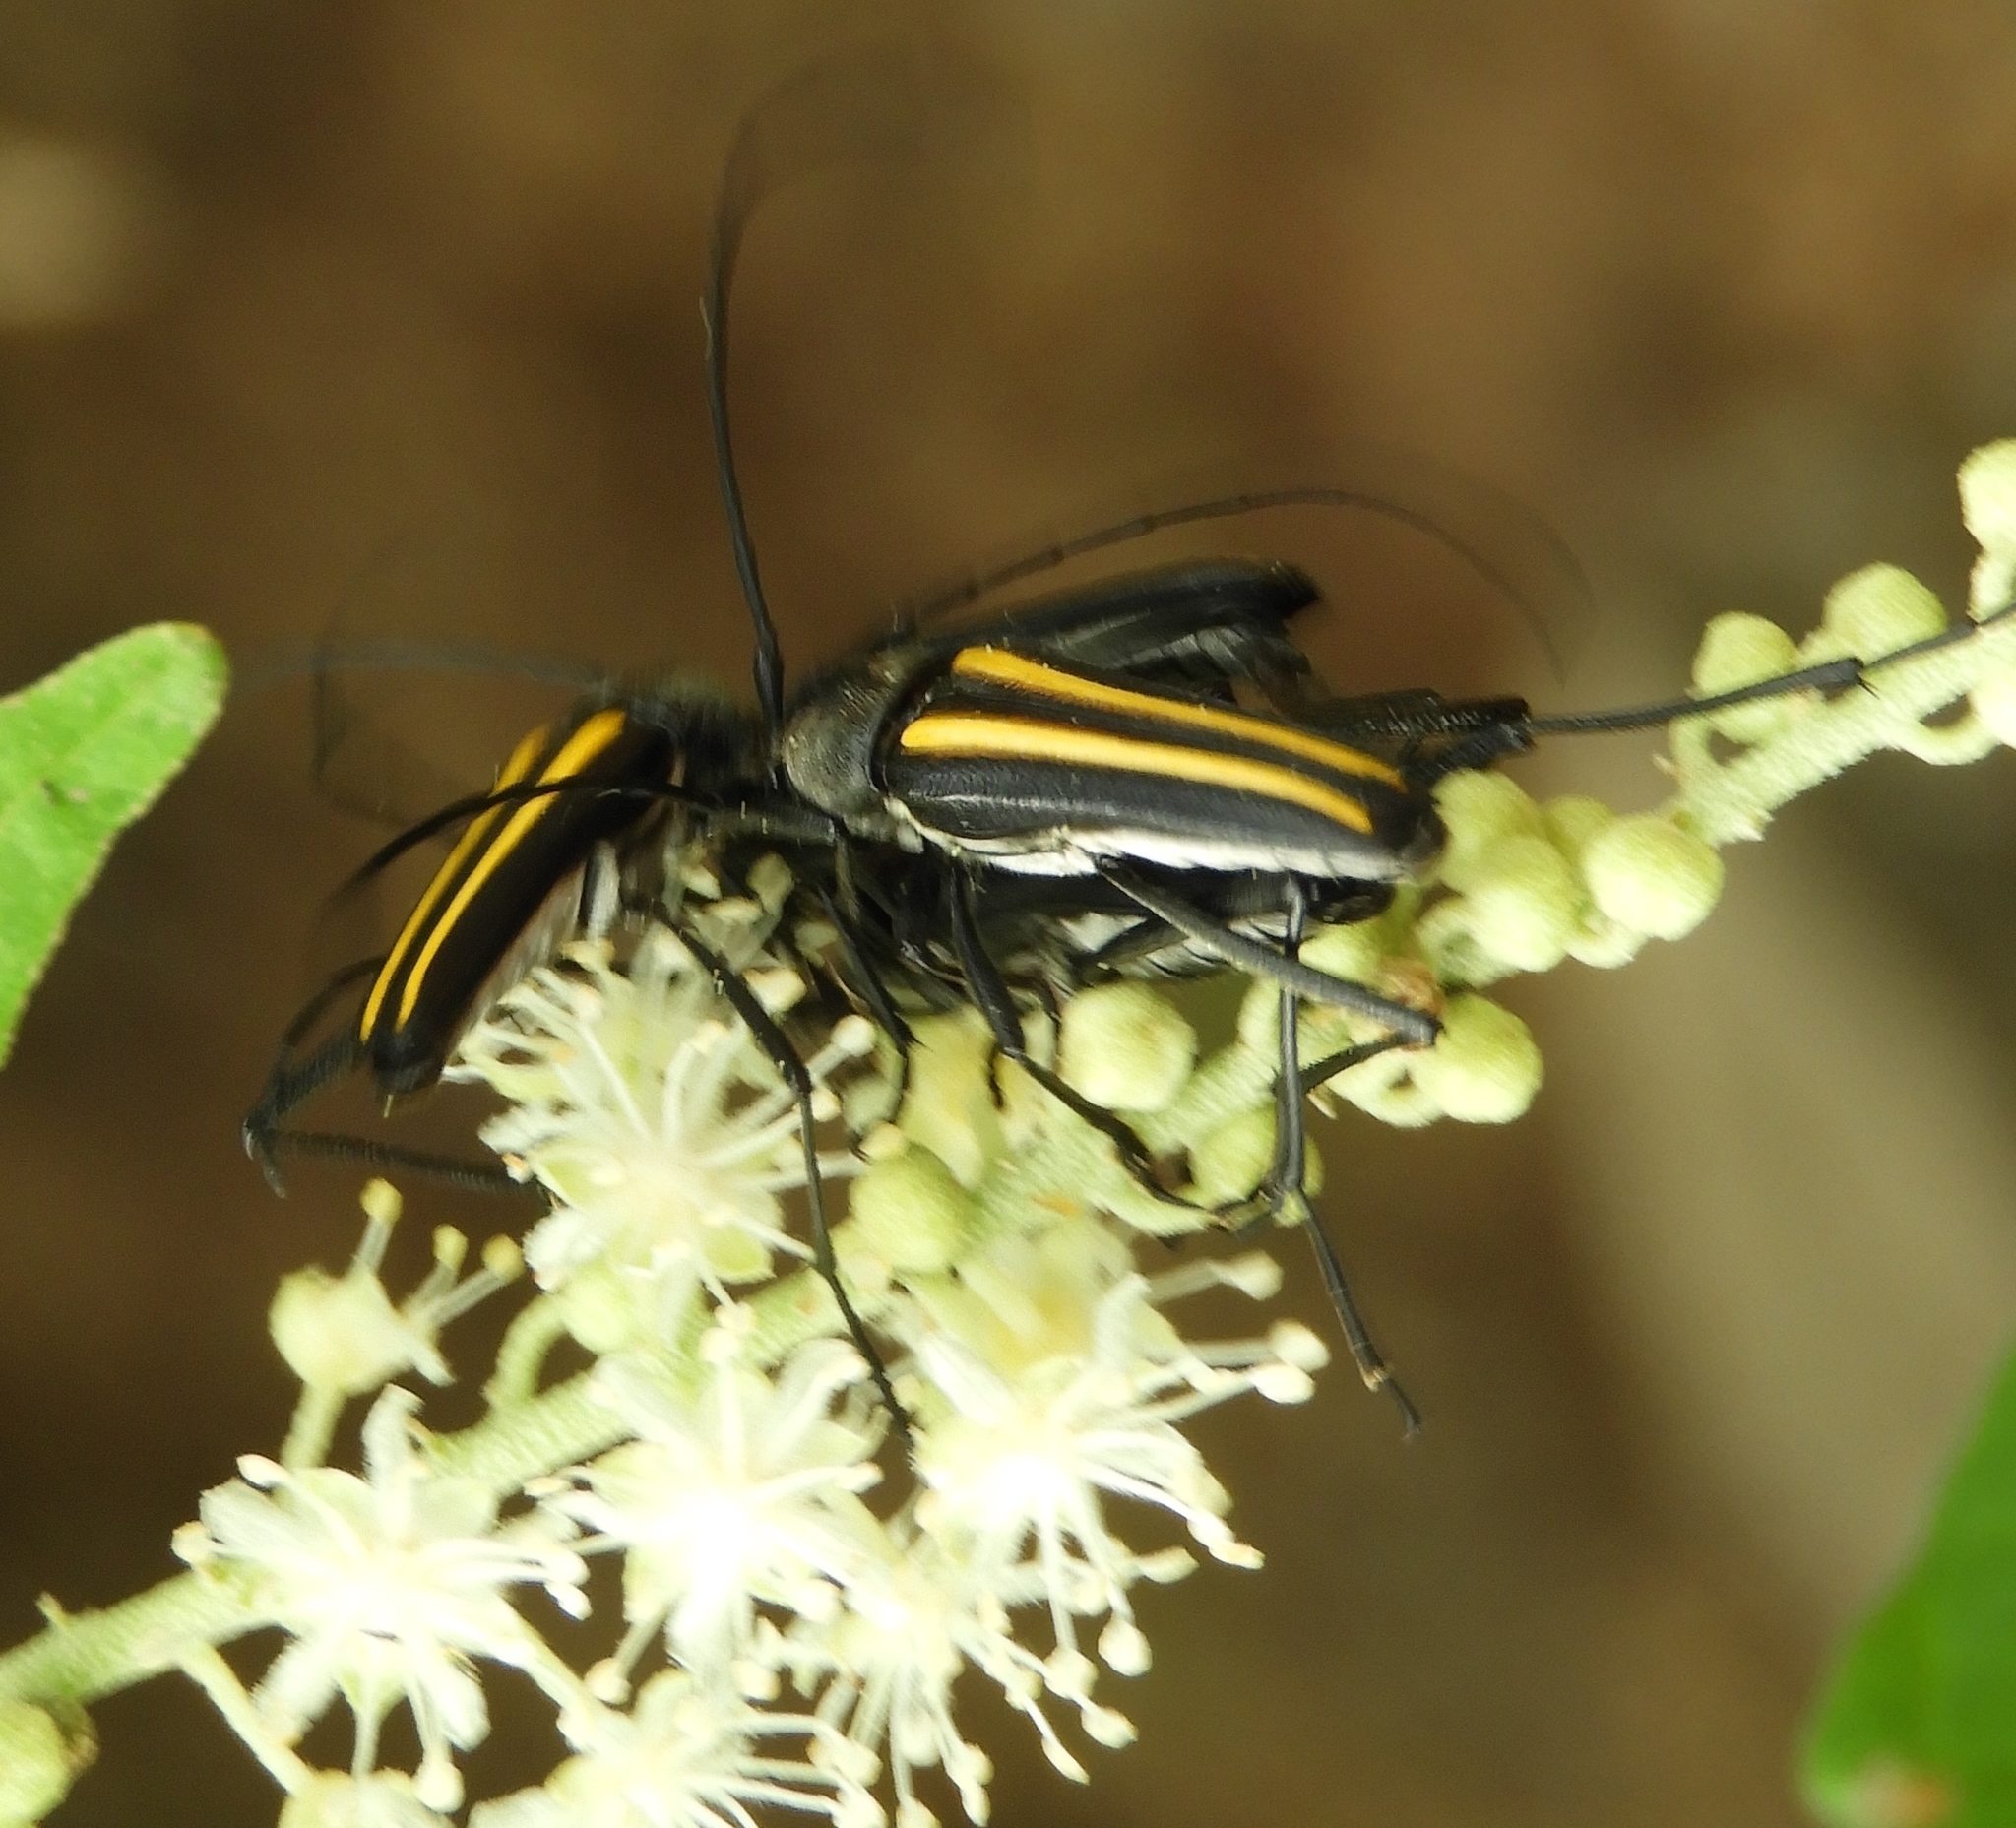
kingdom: Animalia
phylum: Arthropoda
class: Insecta
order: Coleoptera
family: Cerambycidae
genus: Lophalia
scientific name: Lophalia prolata
